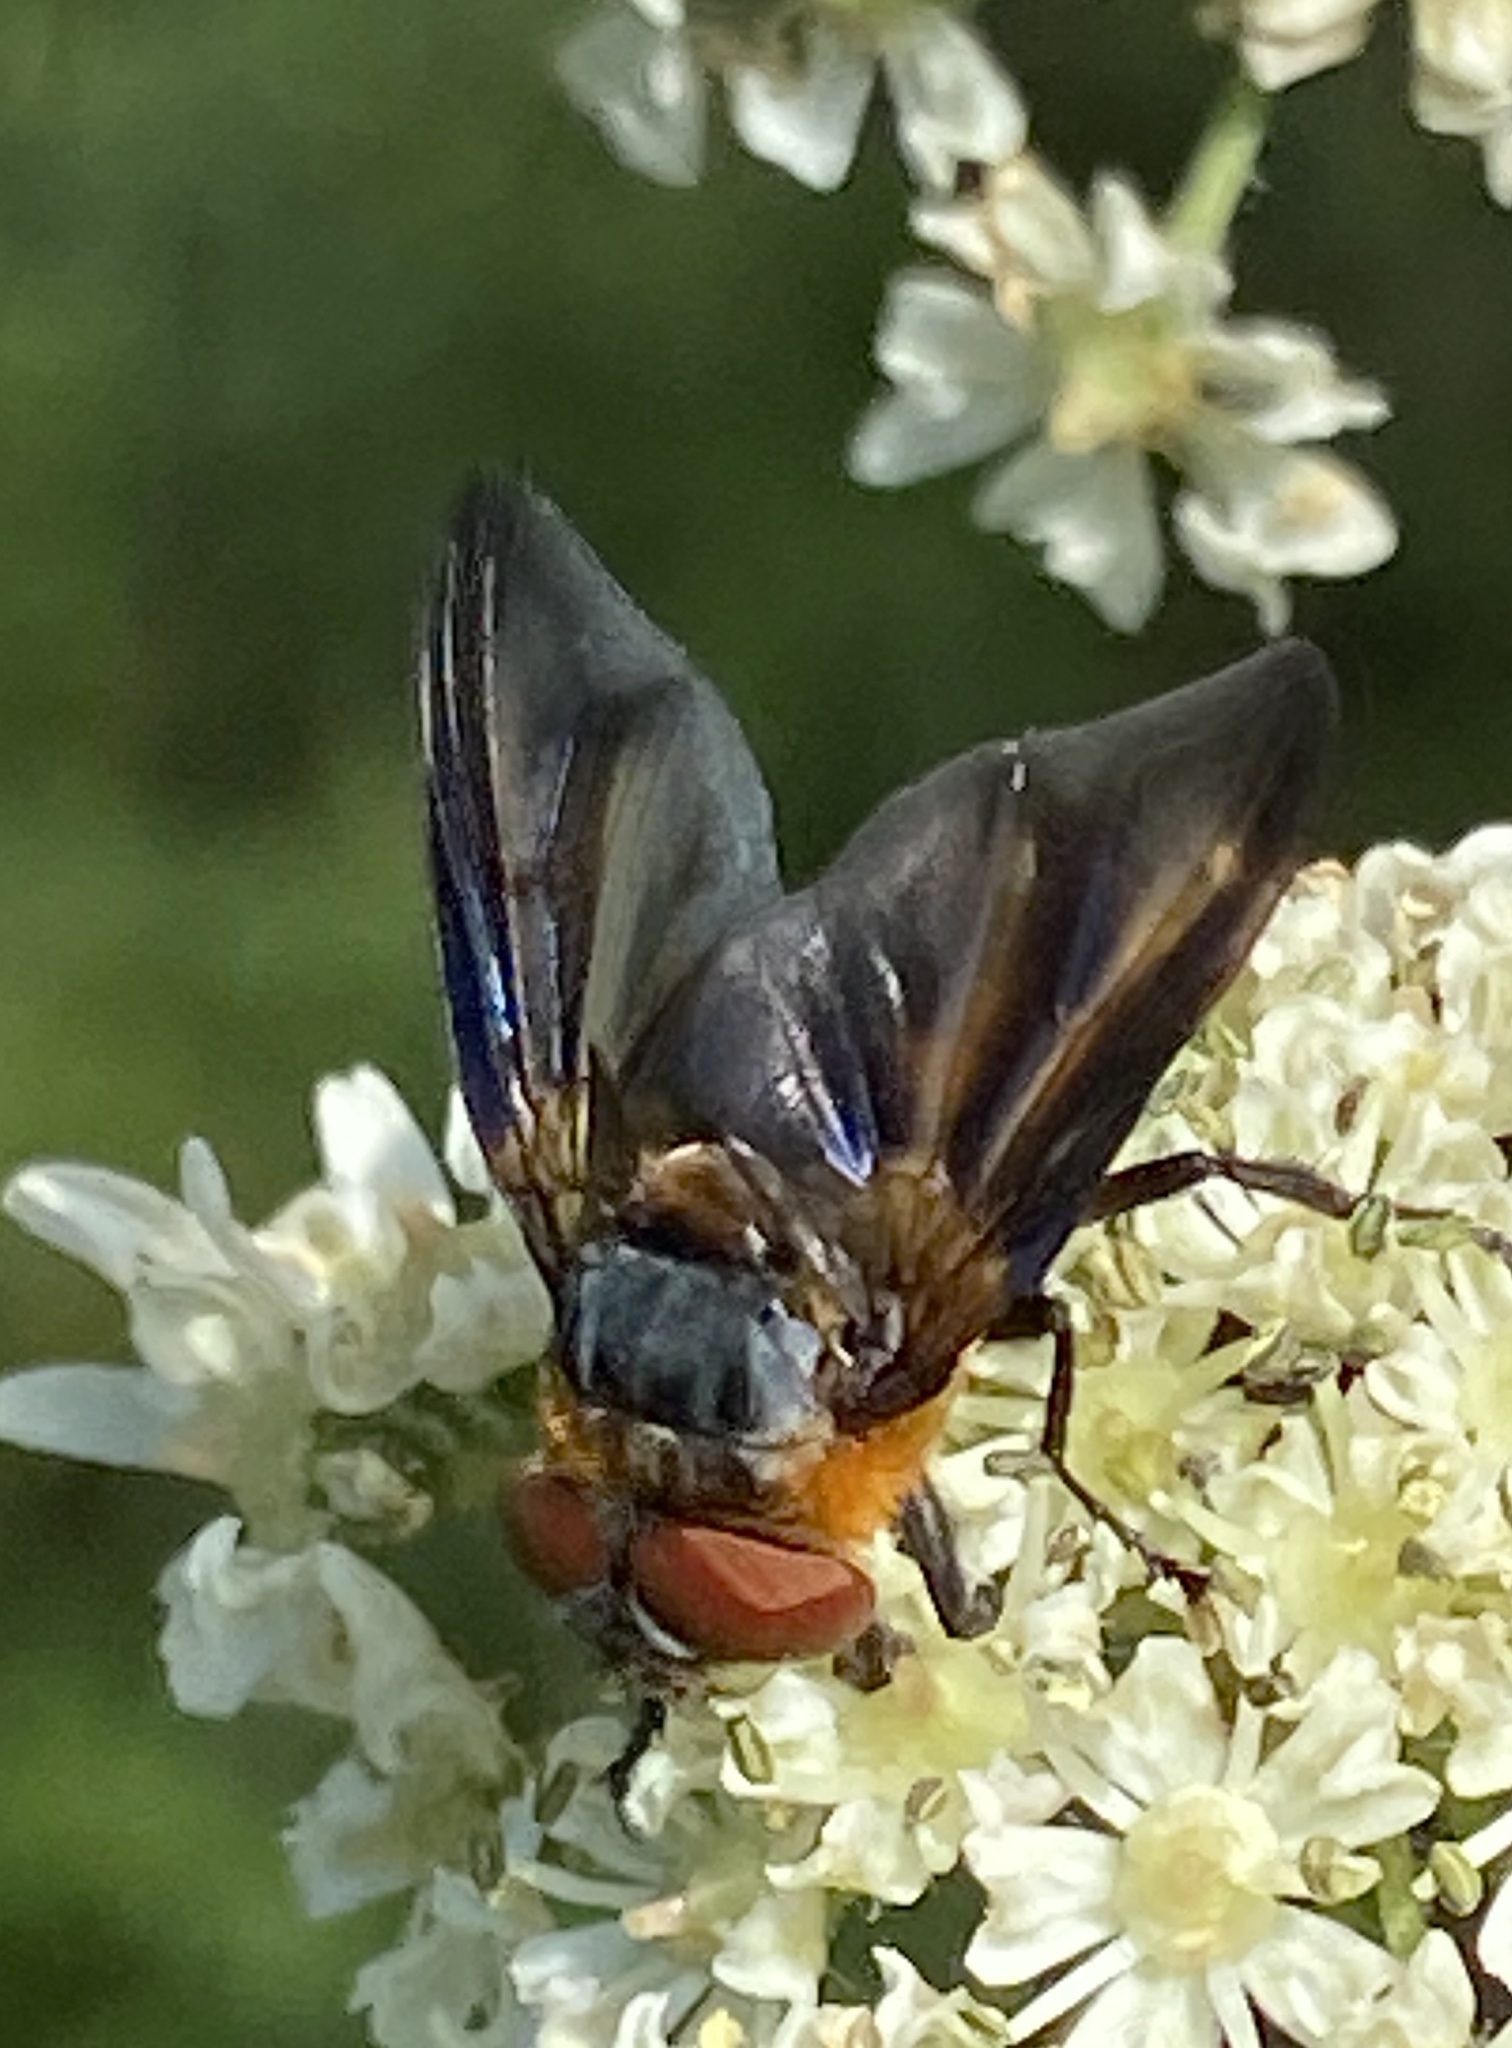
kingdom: Animalia
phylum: Arthropoda
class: Insecta
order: Diptera
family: Tachinidae
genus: Phasia
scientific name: Phasia hemiptera
